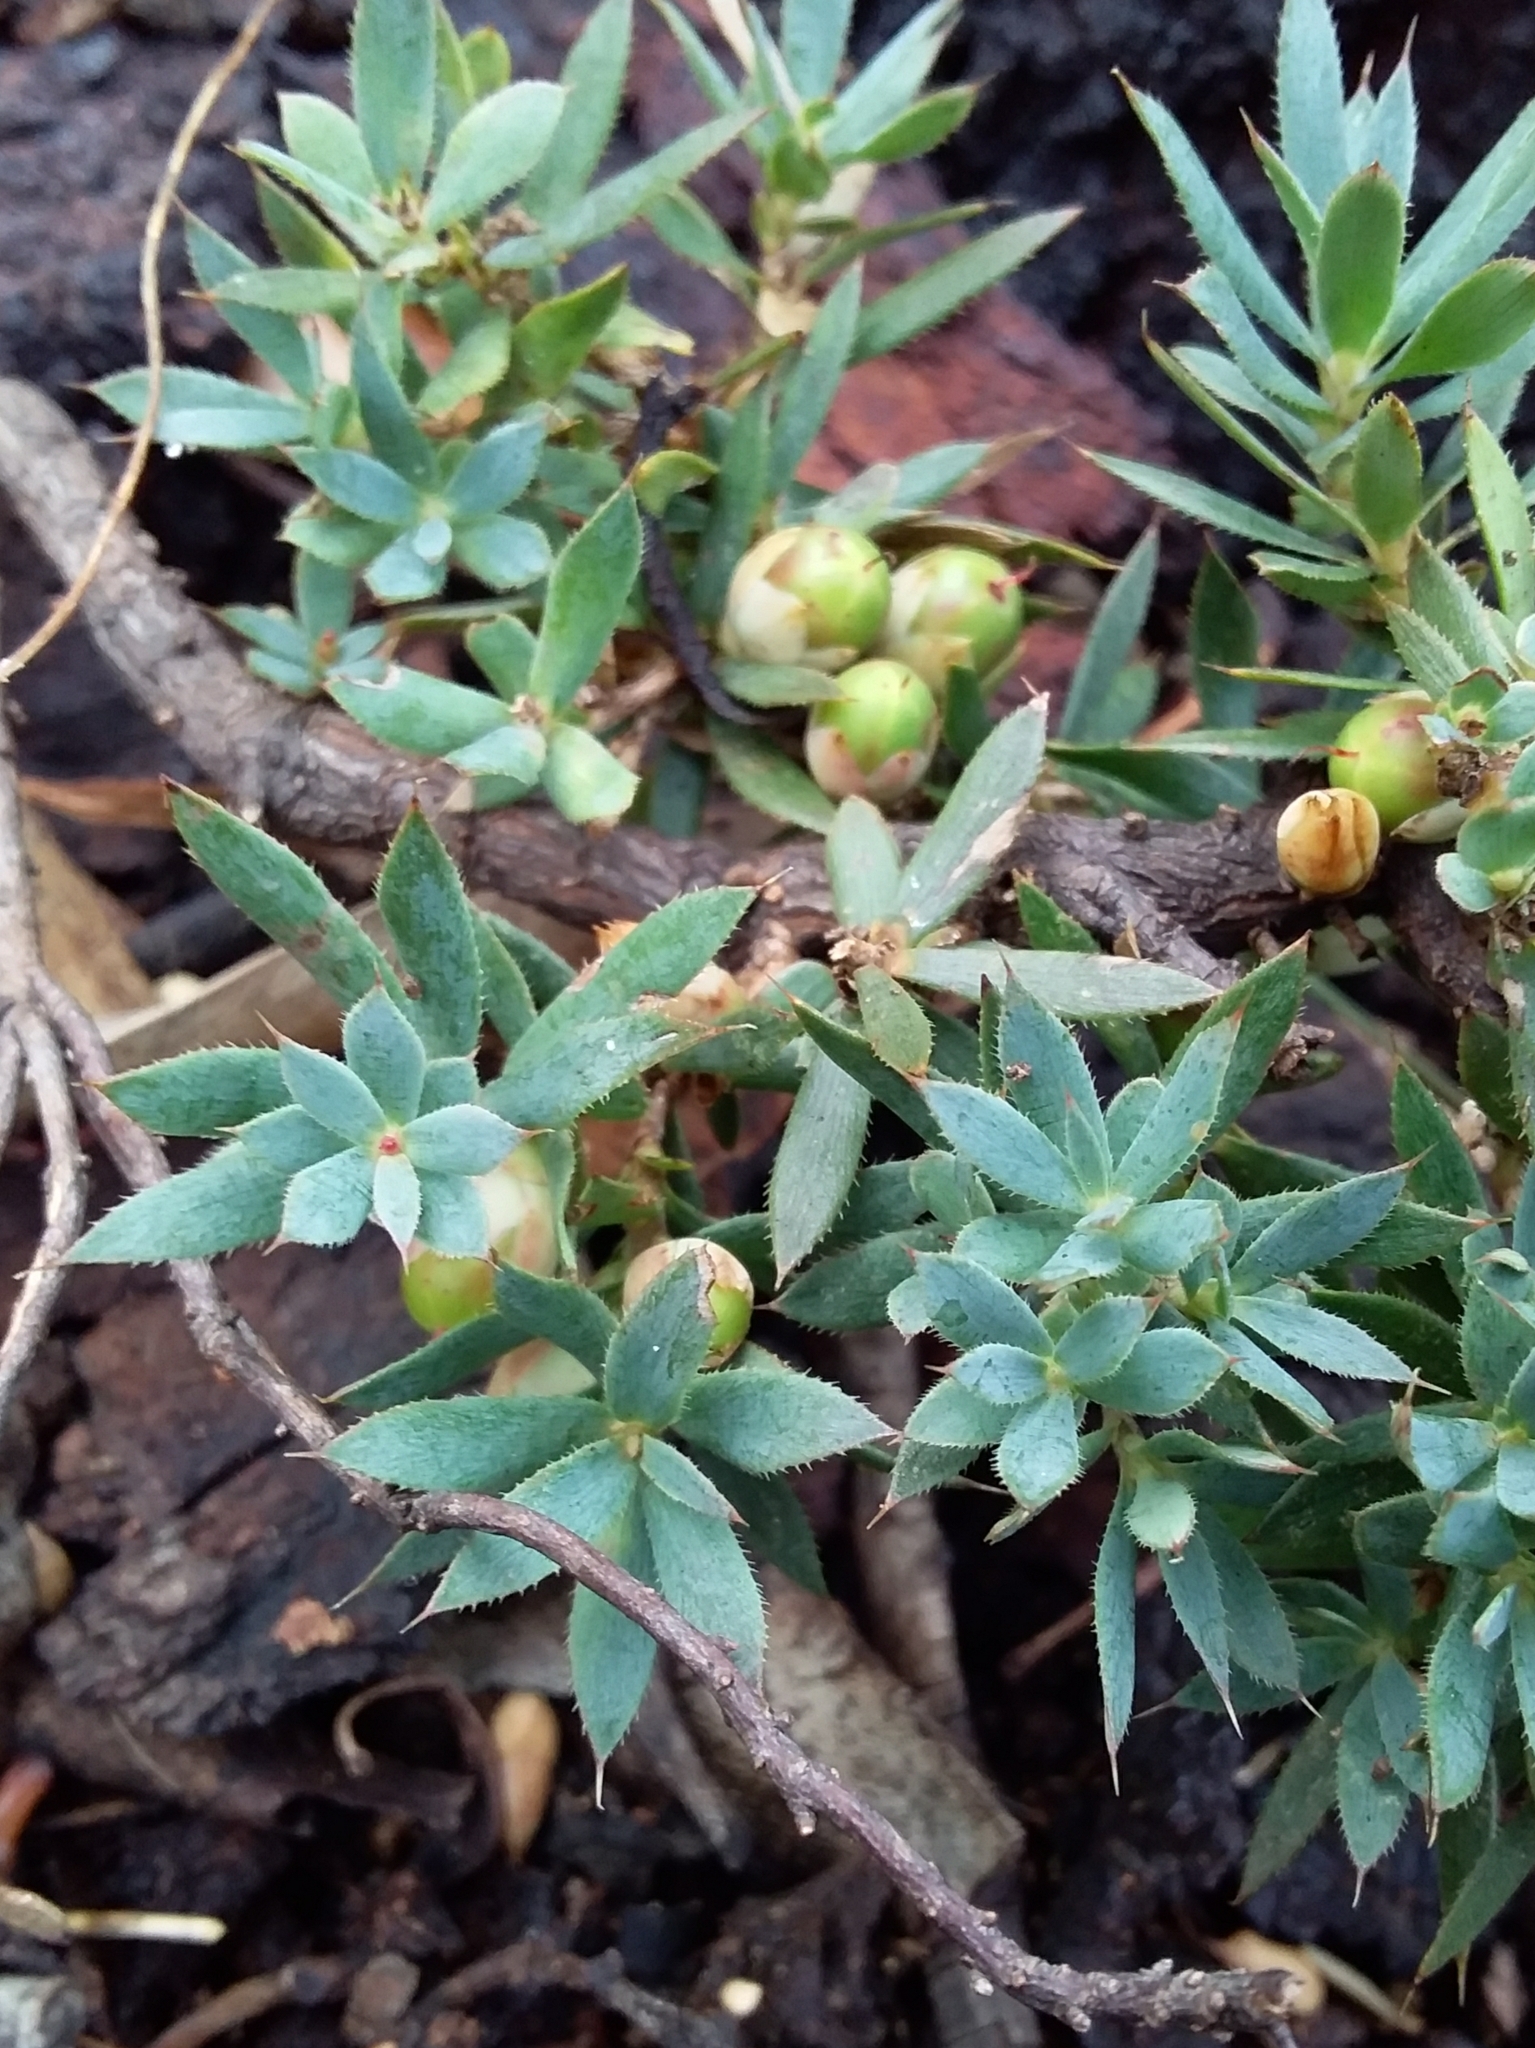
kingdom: Plantae
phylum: Tracheophyta
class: Magnoliopsida
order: Ericales
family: Ericaceae
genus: Styphelia
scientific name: Styphelia humifusa
